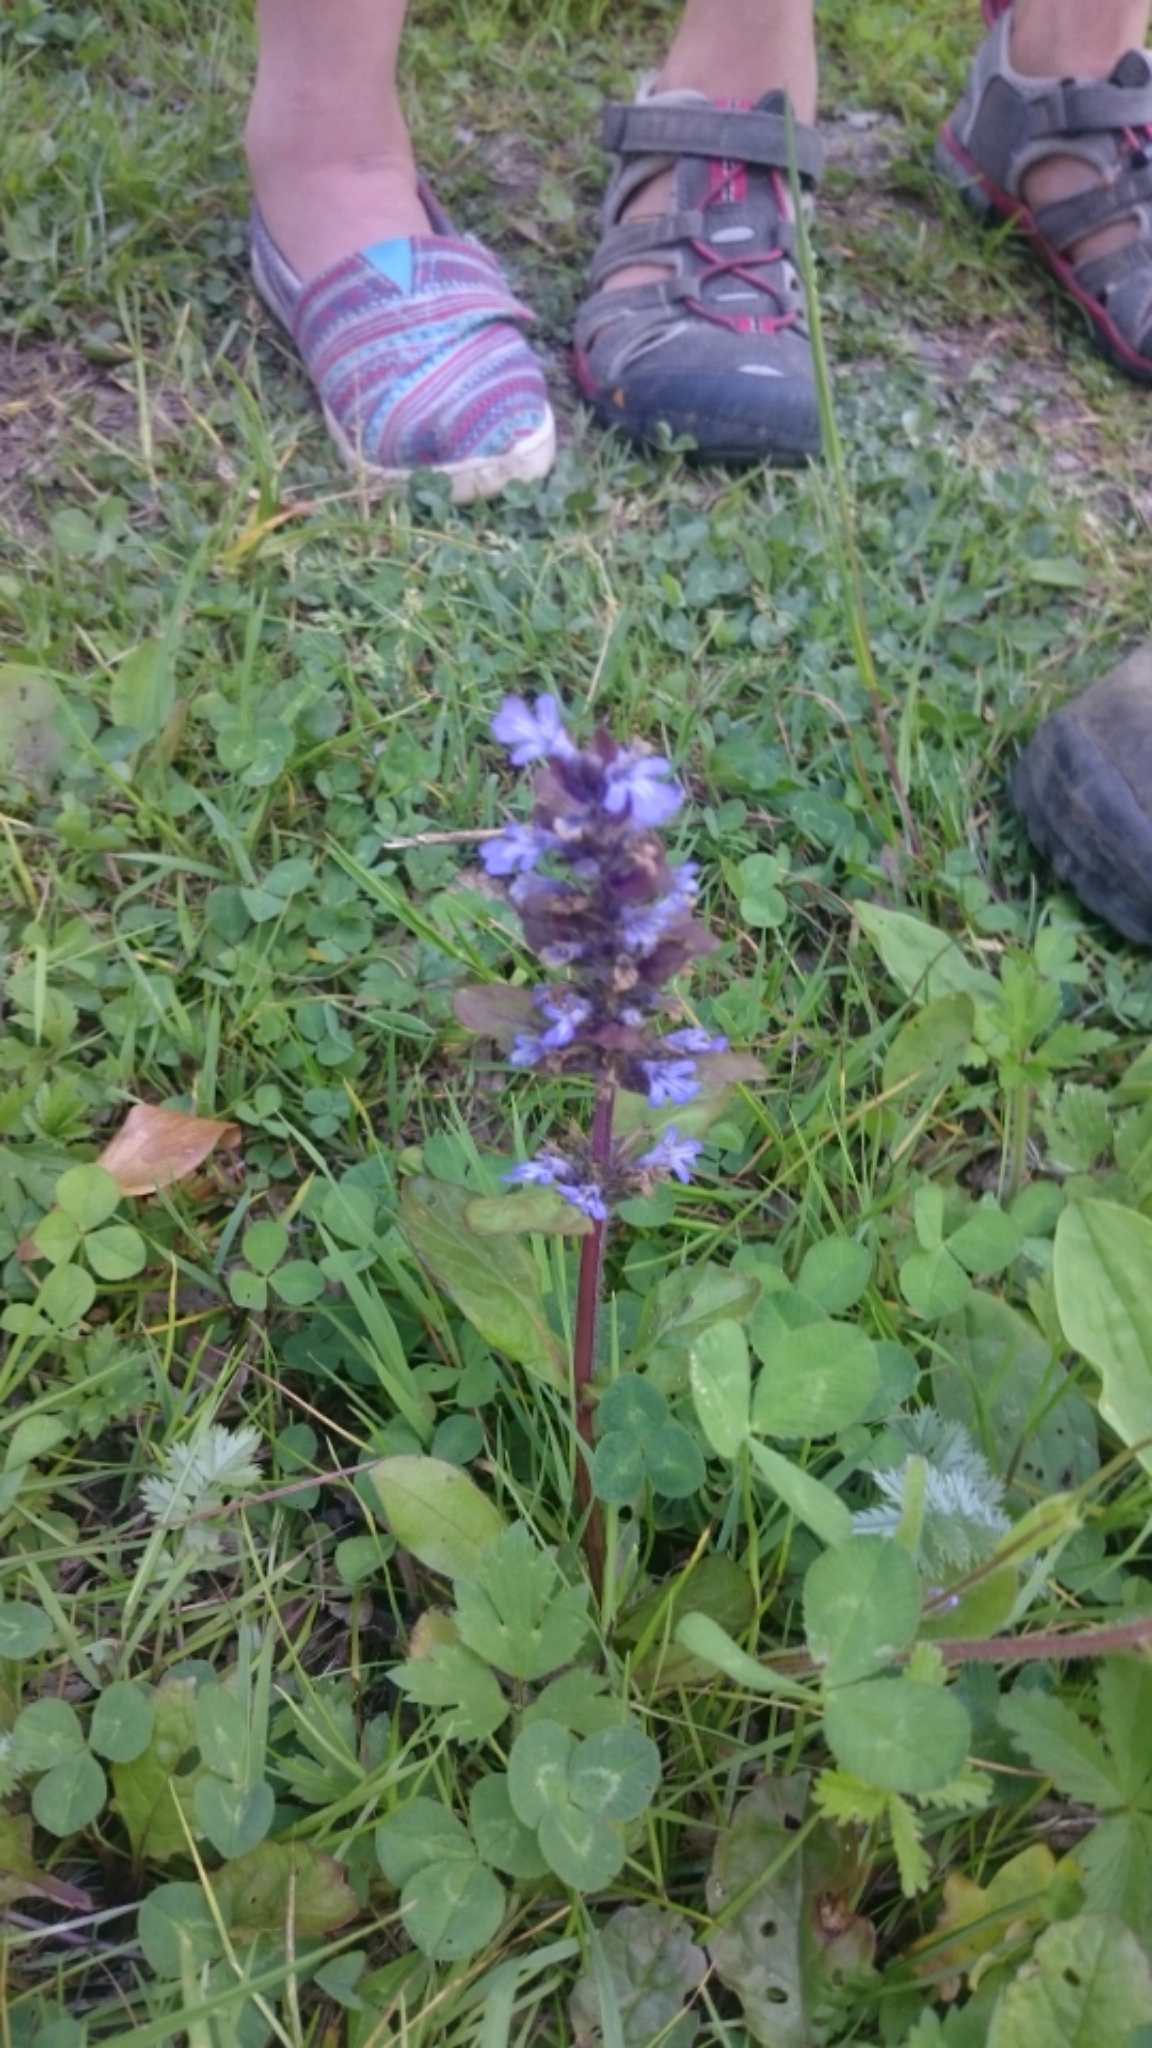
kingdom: Plantae
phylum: Tracheophyta
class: Magnoliopsida
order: Lamiales
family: Lamiaceae
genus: Ajuga
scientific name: Ajuga reptans
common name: Bugle
